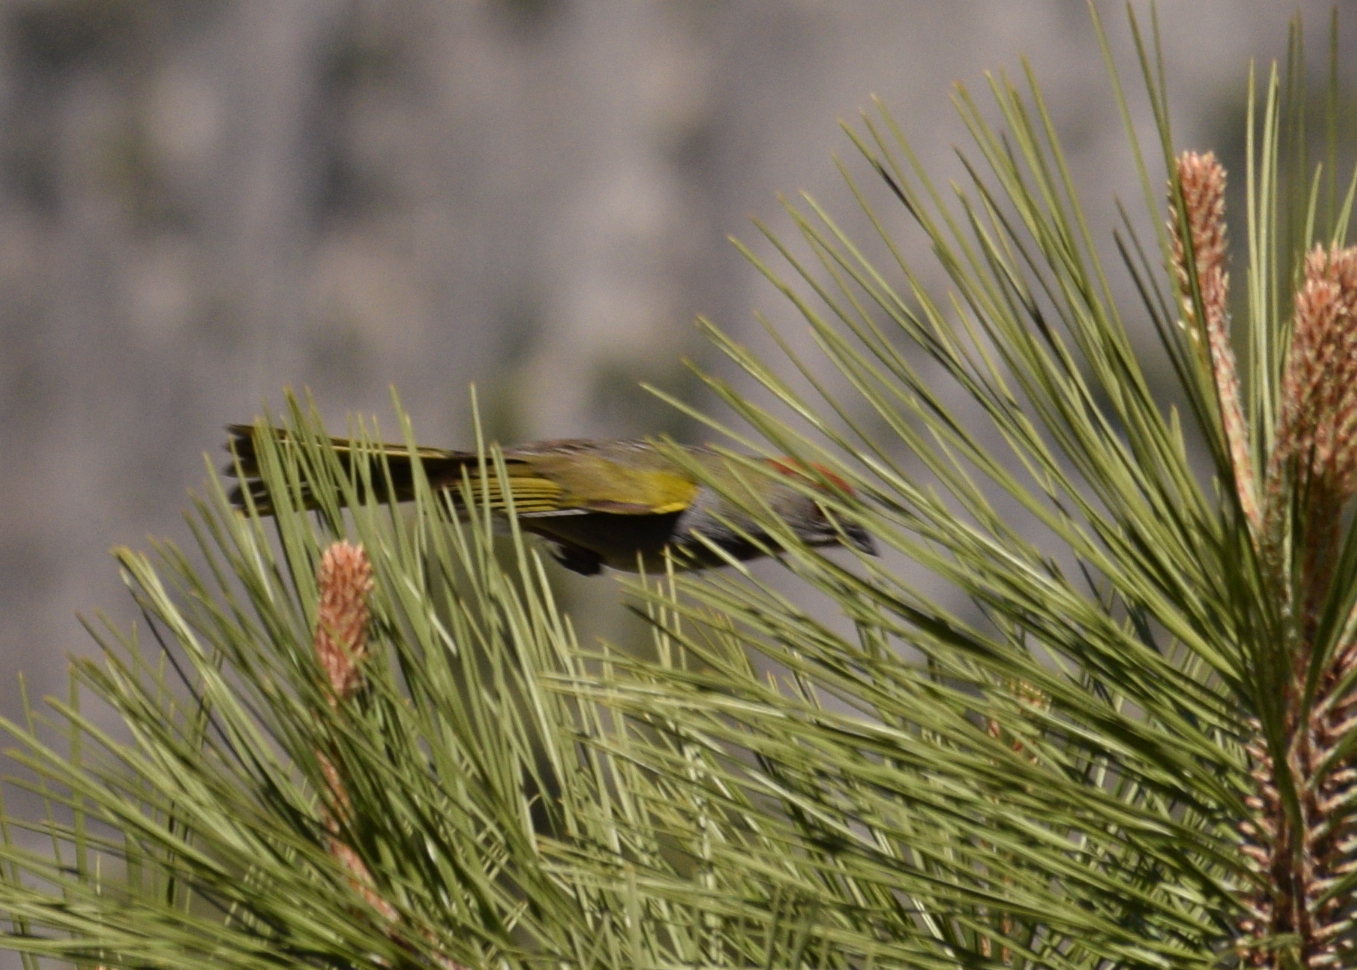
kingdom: Animalia
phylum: Chordata
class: Aves
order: Passeriformes
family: Passerellidae
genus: Pipilo
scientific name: Pipilo chlorurus
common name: Green-tailed towhee
